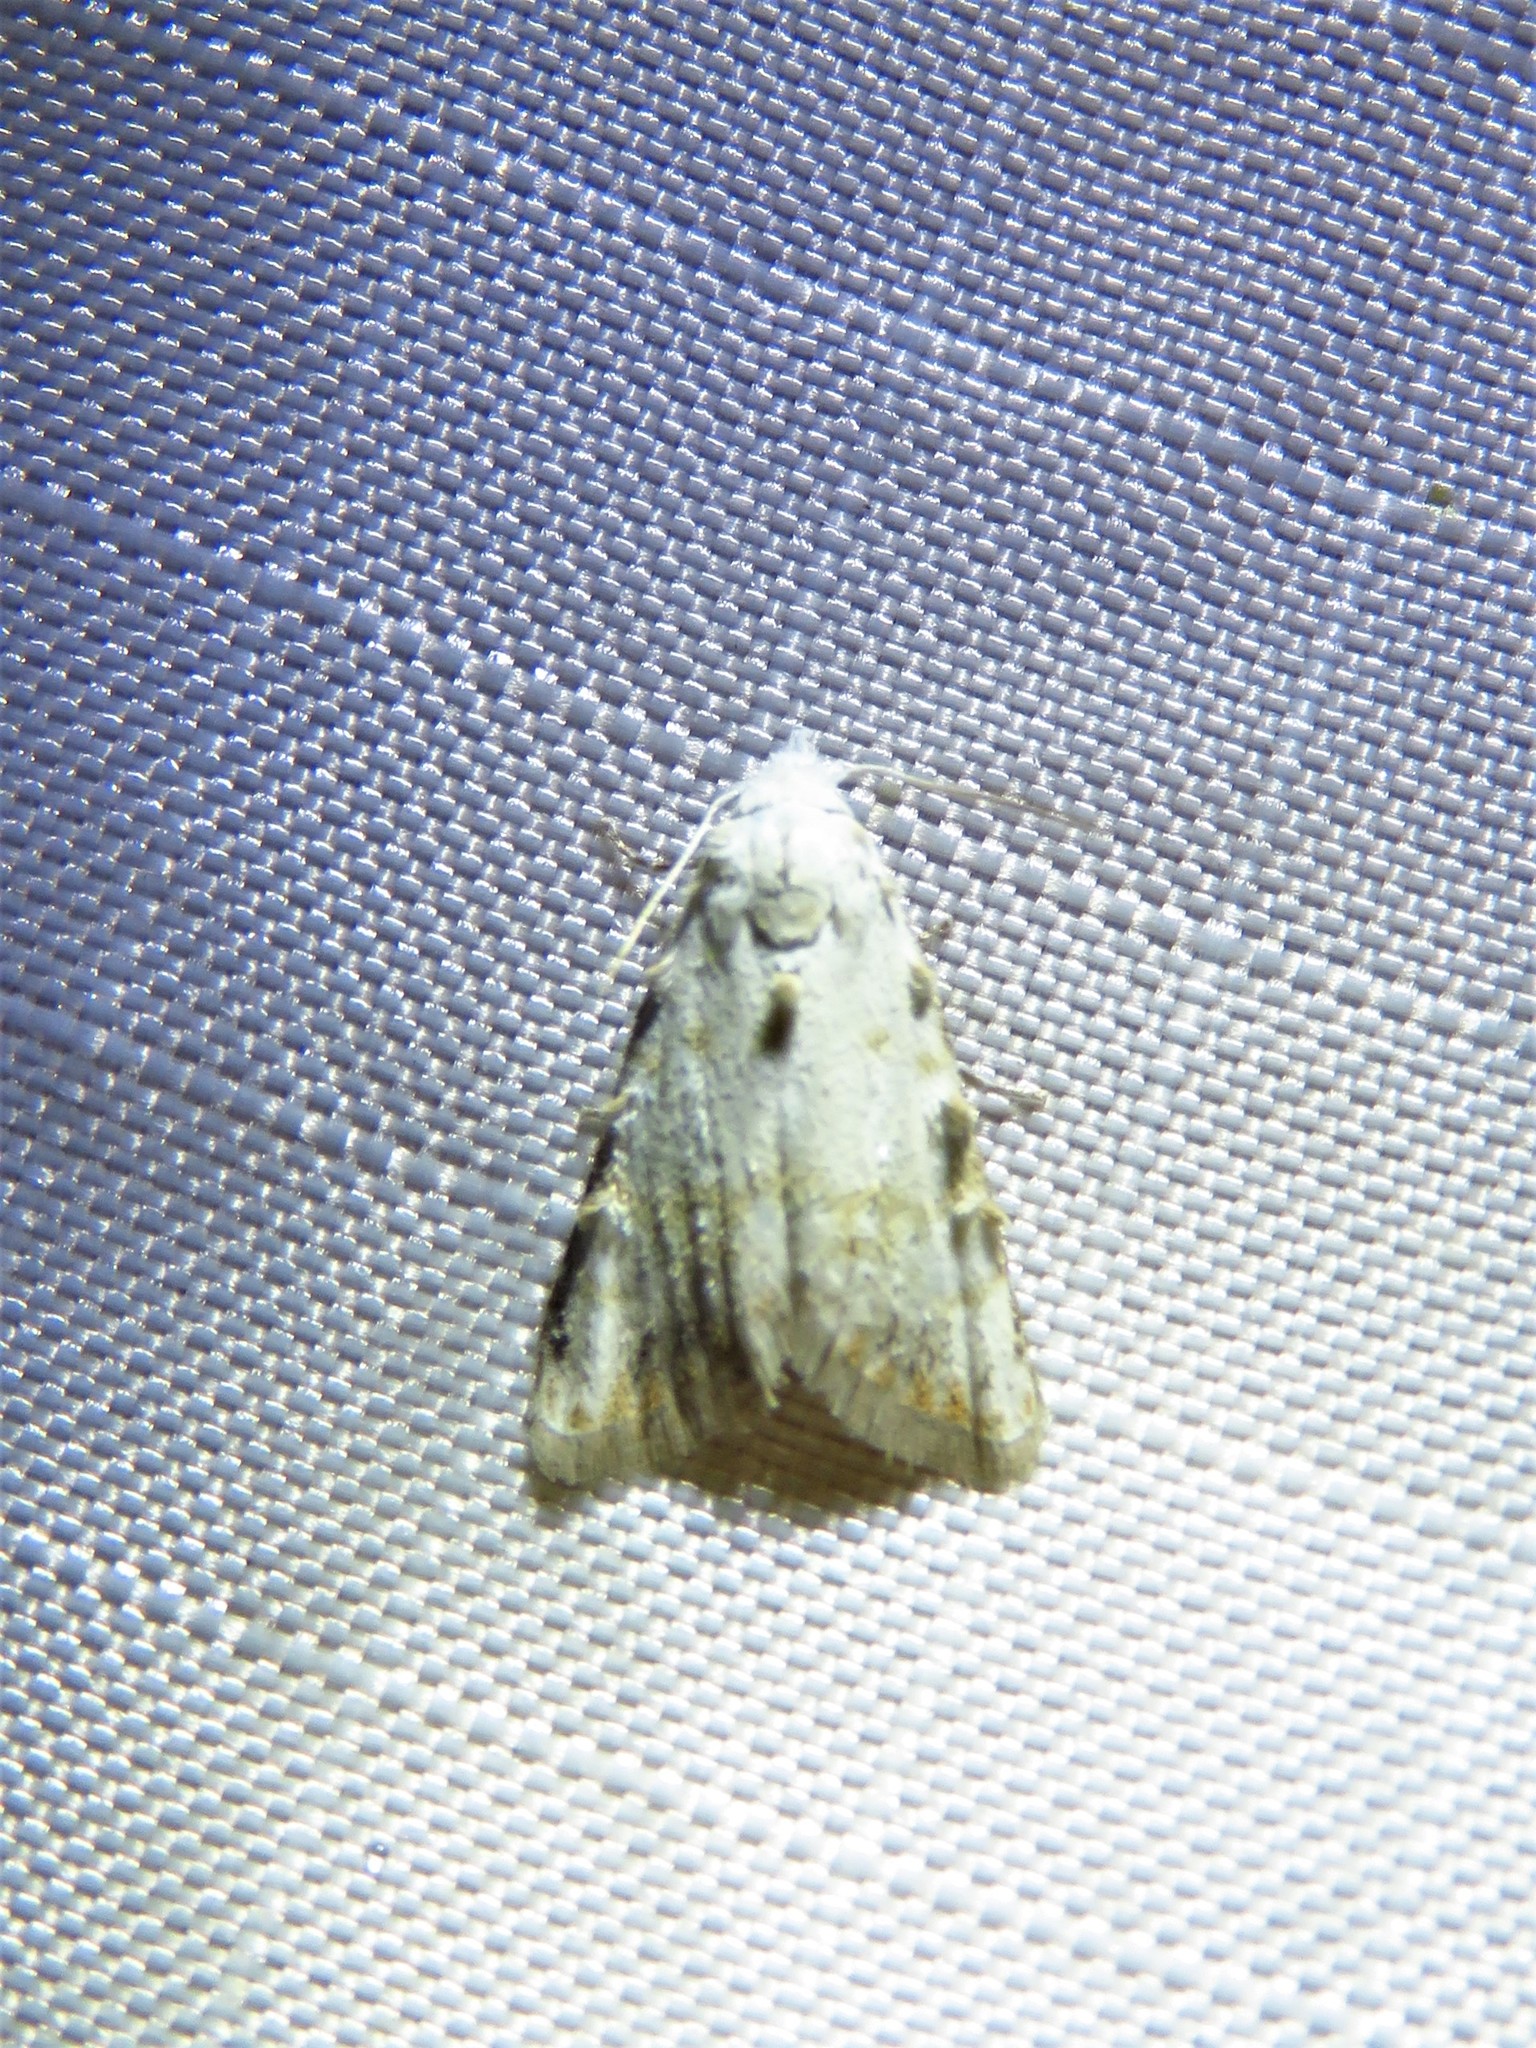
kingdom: Animalia
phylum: Arthropoda
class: Insecta
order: Lepidoptera
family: Nolidae
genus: Nola
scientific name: Nola cereella
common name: Sorghum webworm moth
